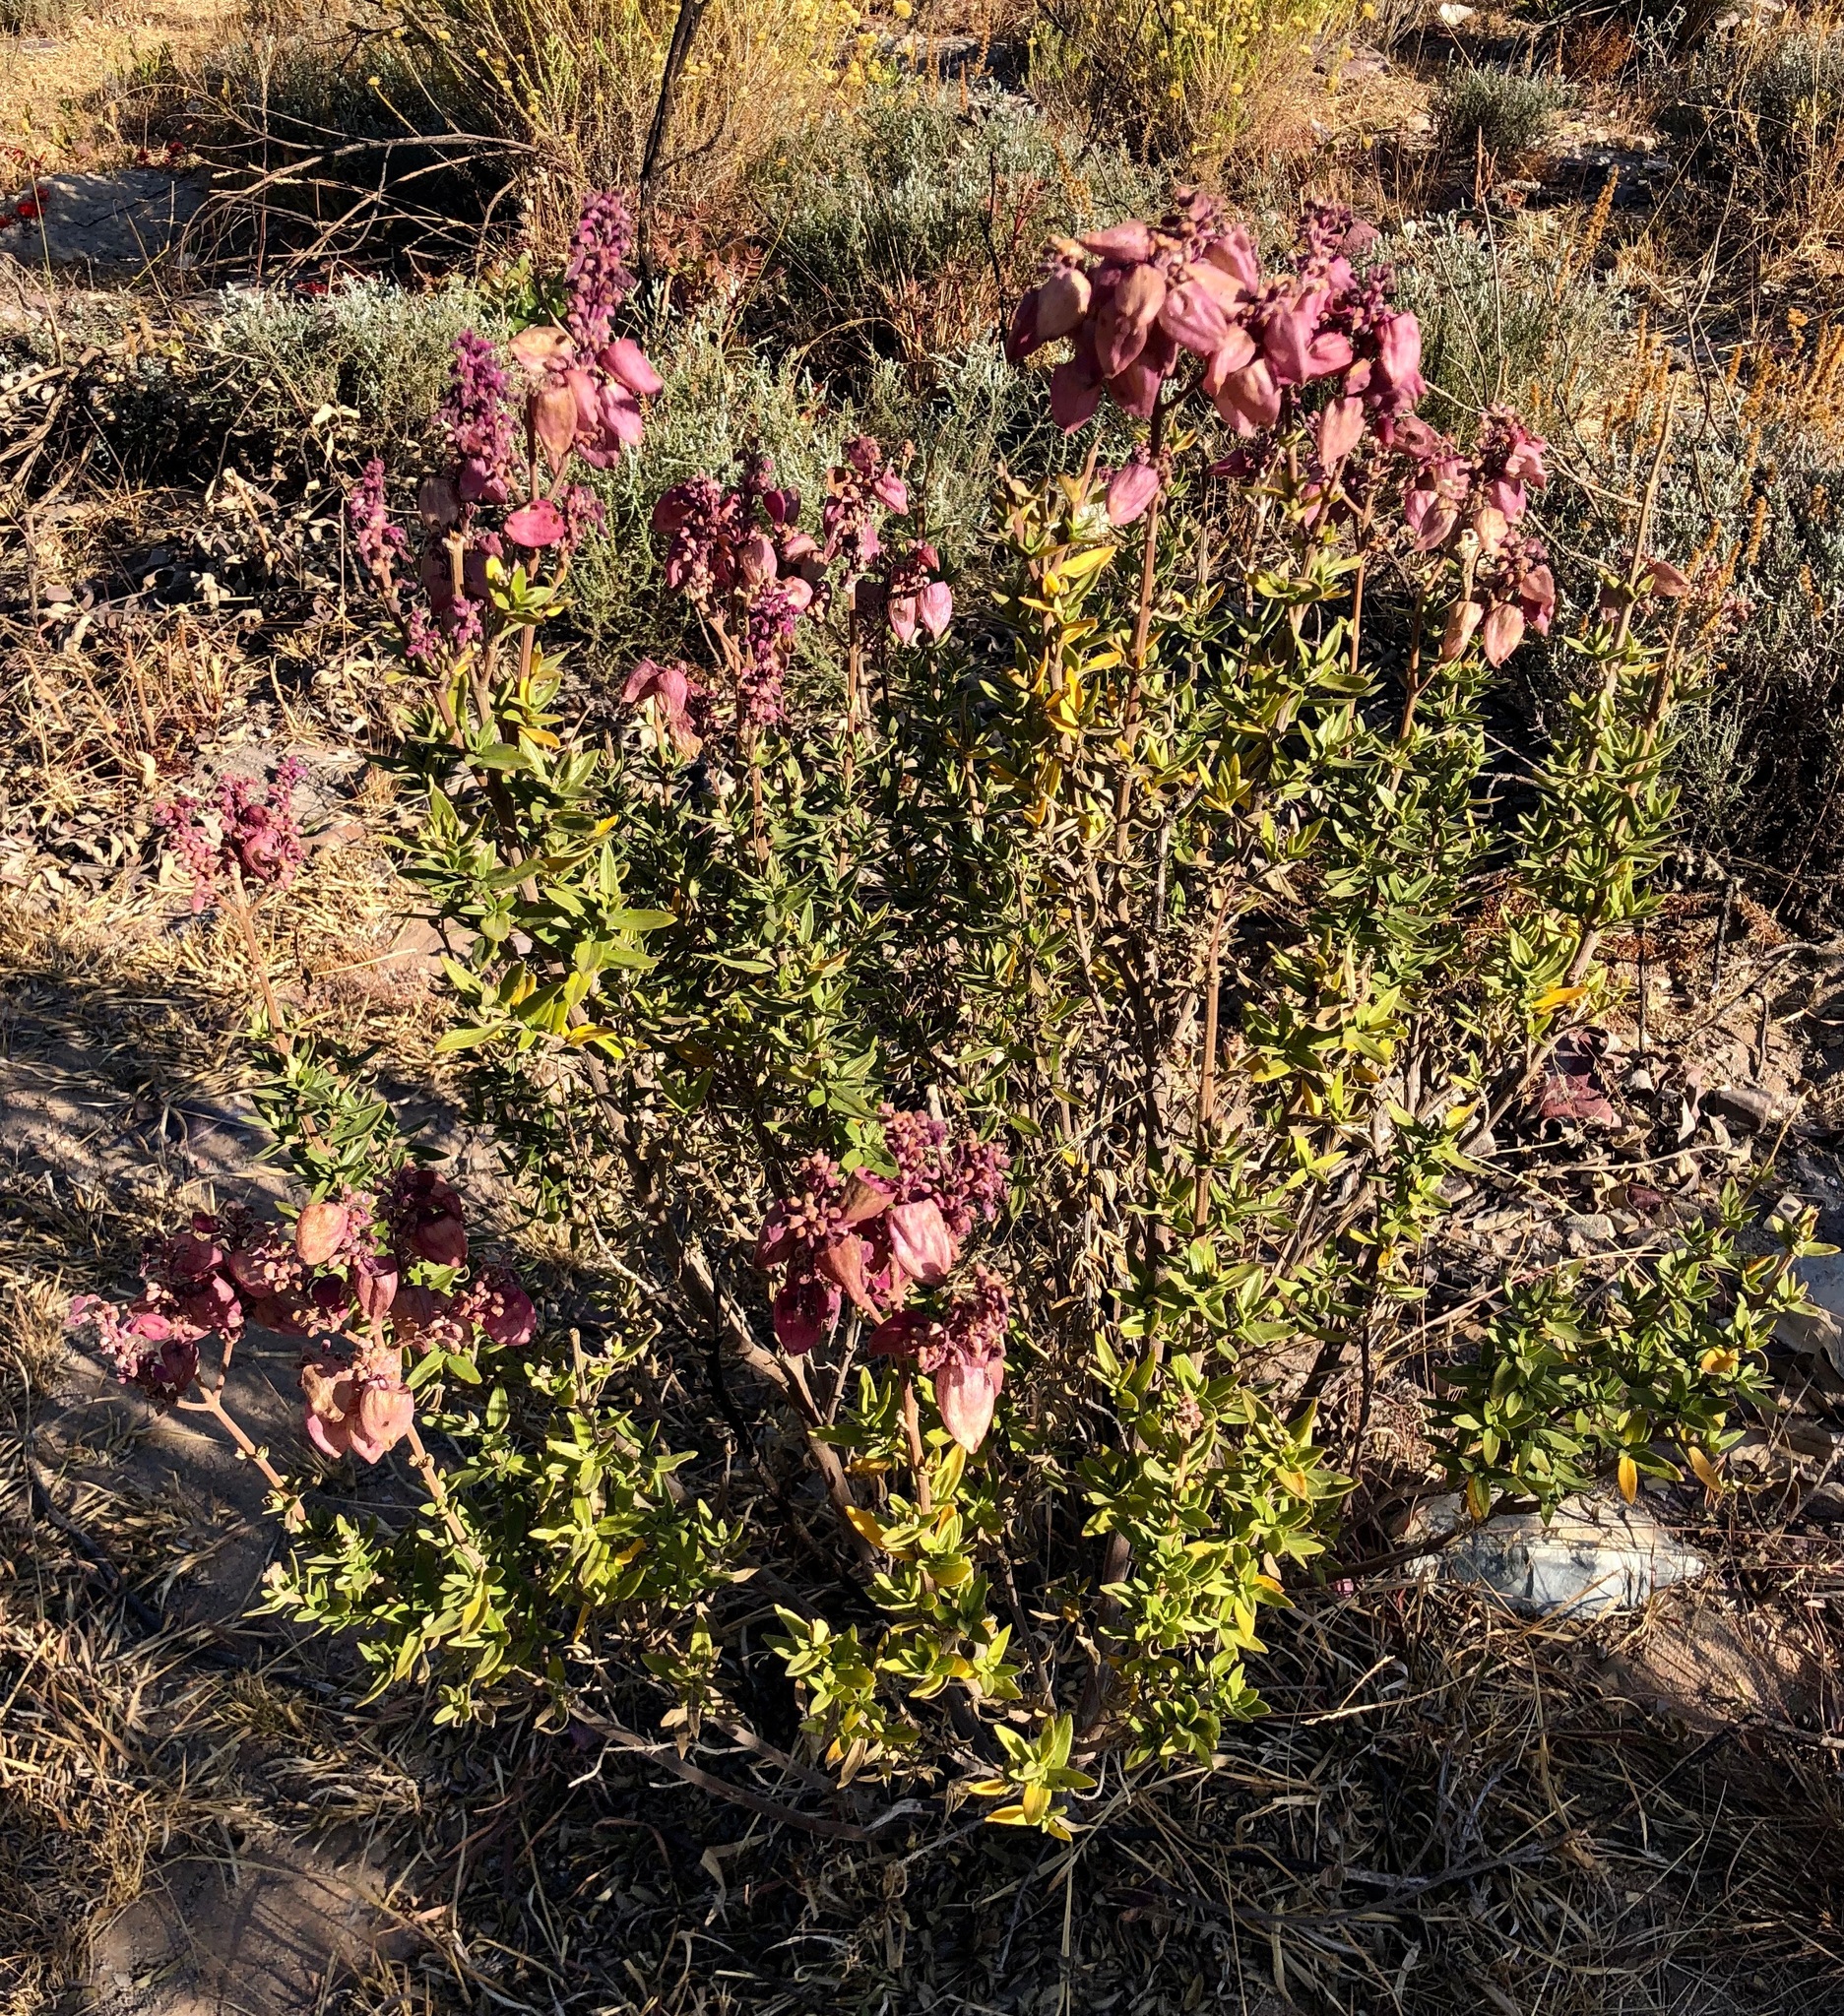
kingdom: Plantae
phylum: Tracheophyta
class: Magnoliopsida
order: Lamiales
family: Lamiaceae
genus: Alvesia
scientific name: Alvesia rosmarinifolia
